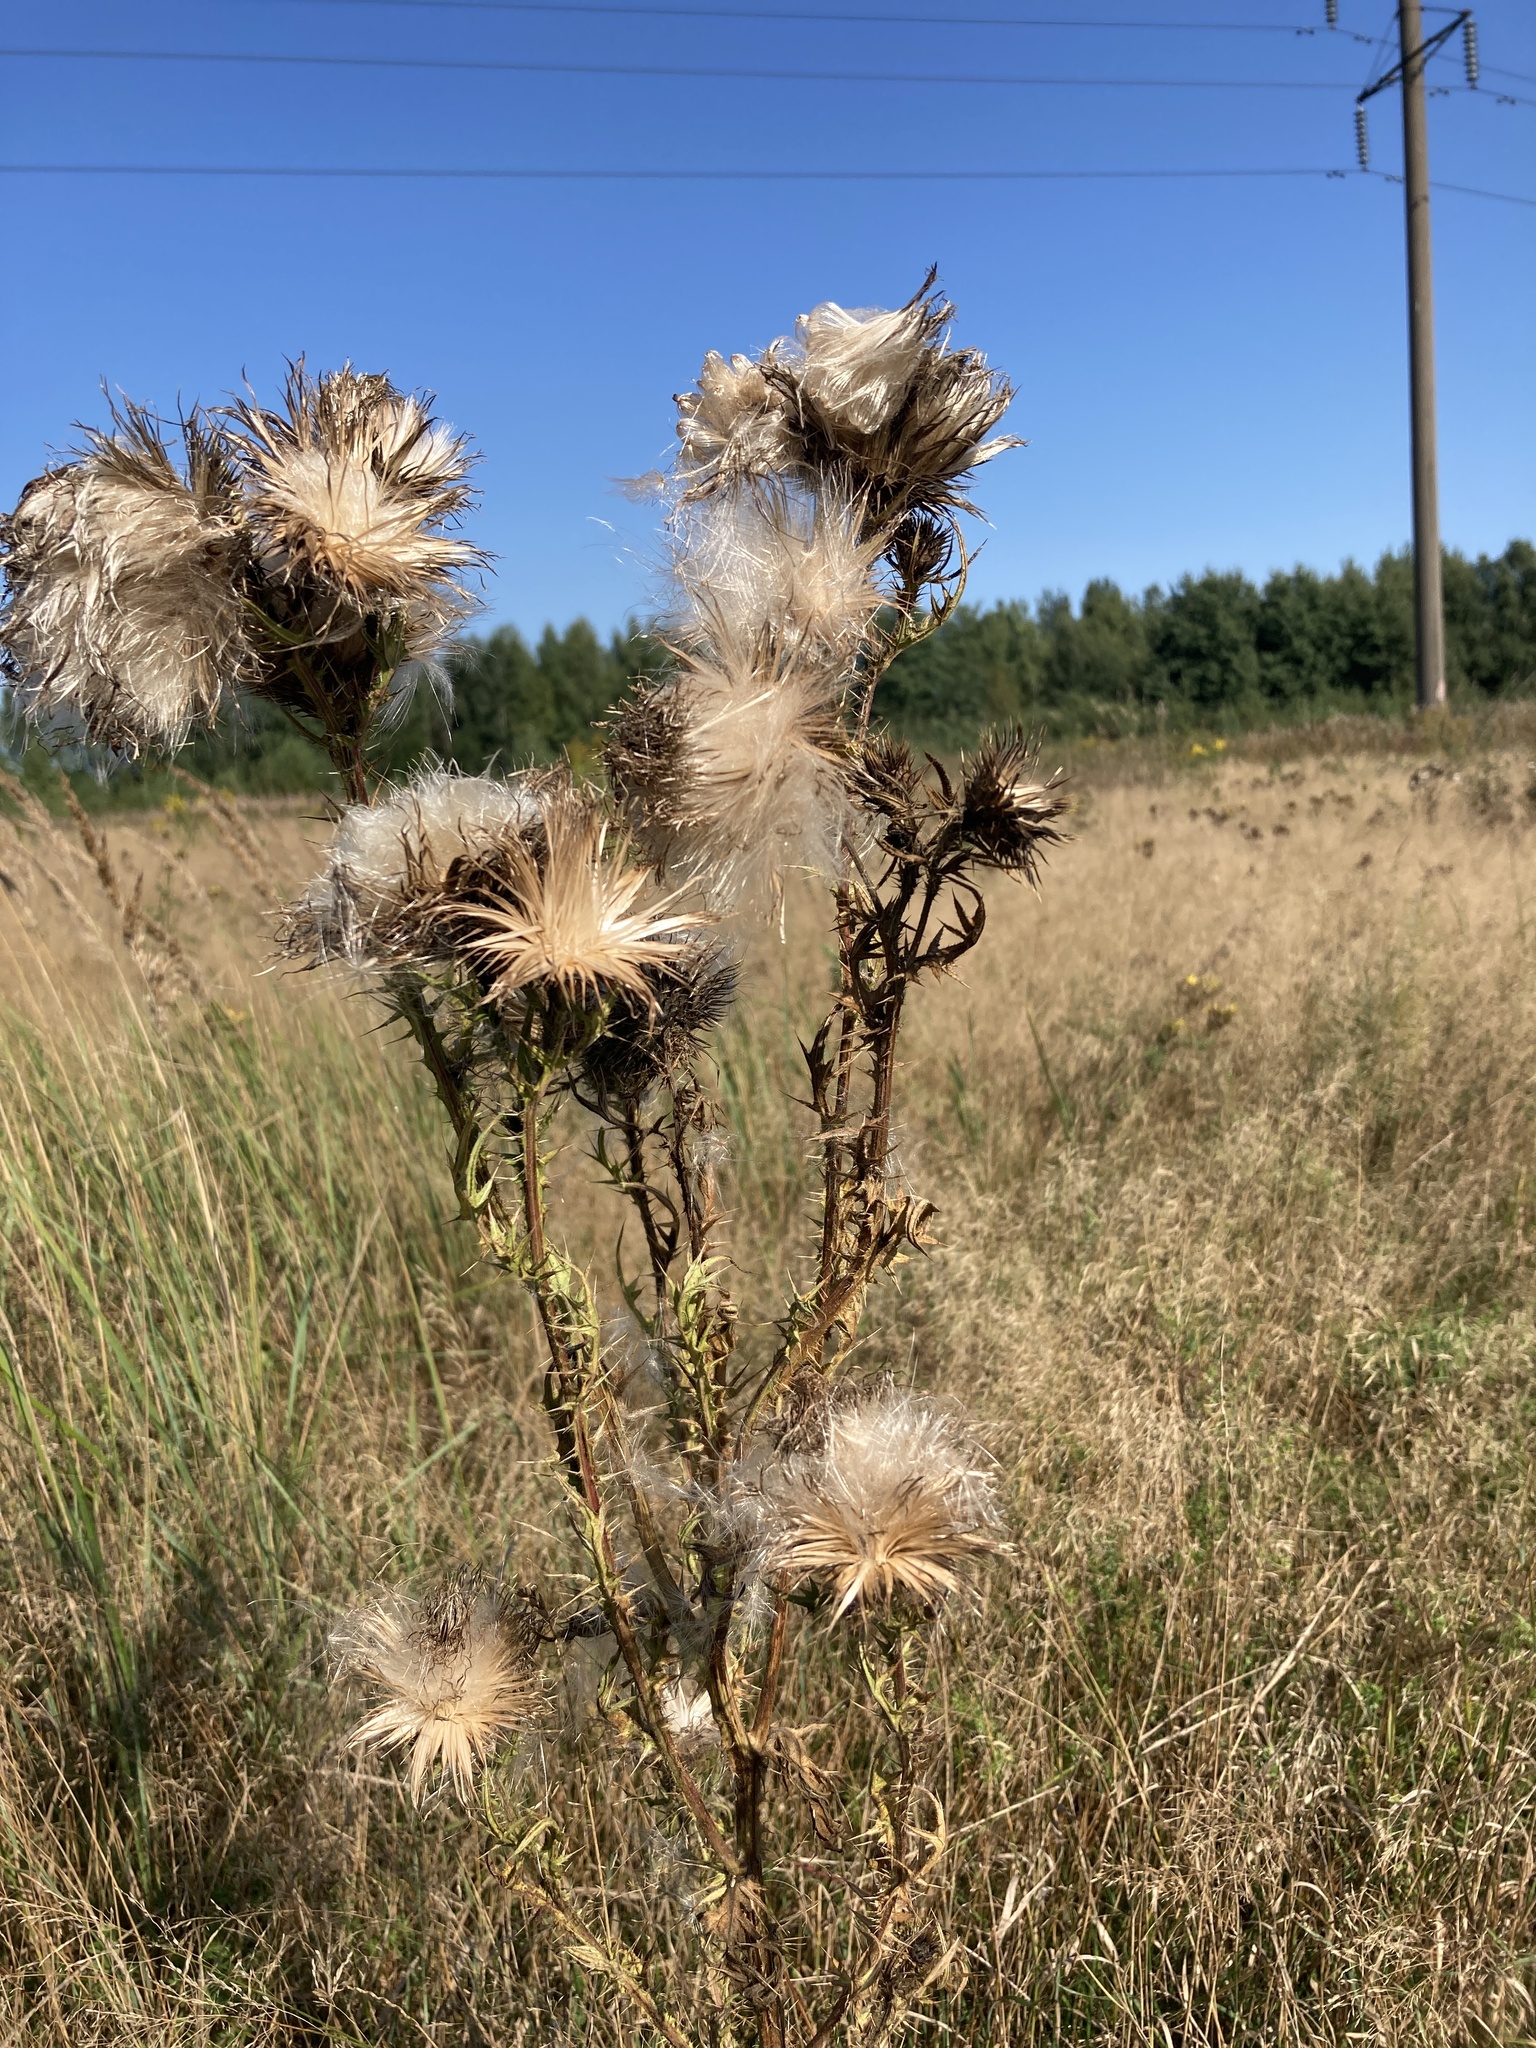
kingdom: Plantae
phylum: Tracheophyta
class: Magnoliopsida
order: Asterales
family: Asteraceae
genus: Cirsium
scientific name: Cirsium vulgare
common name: Bull thistle
